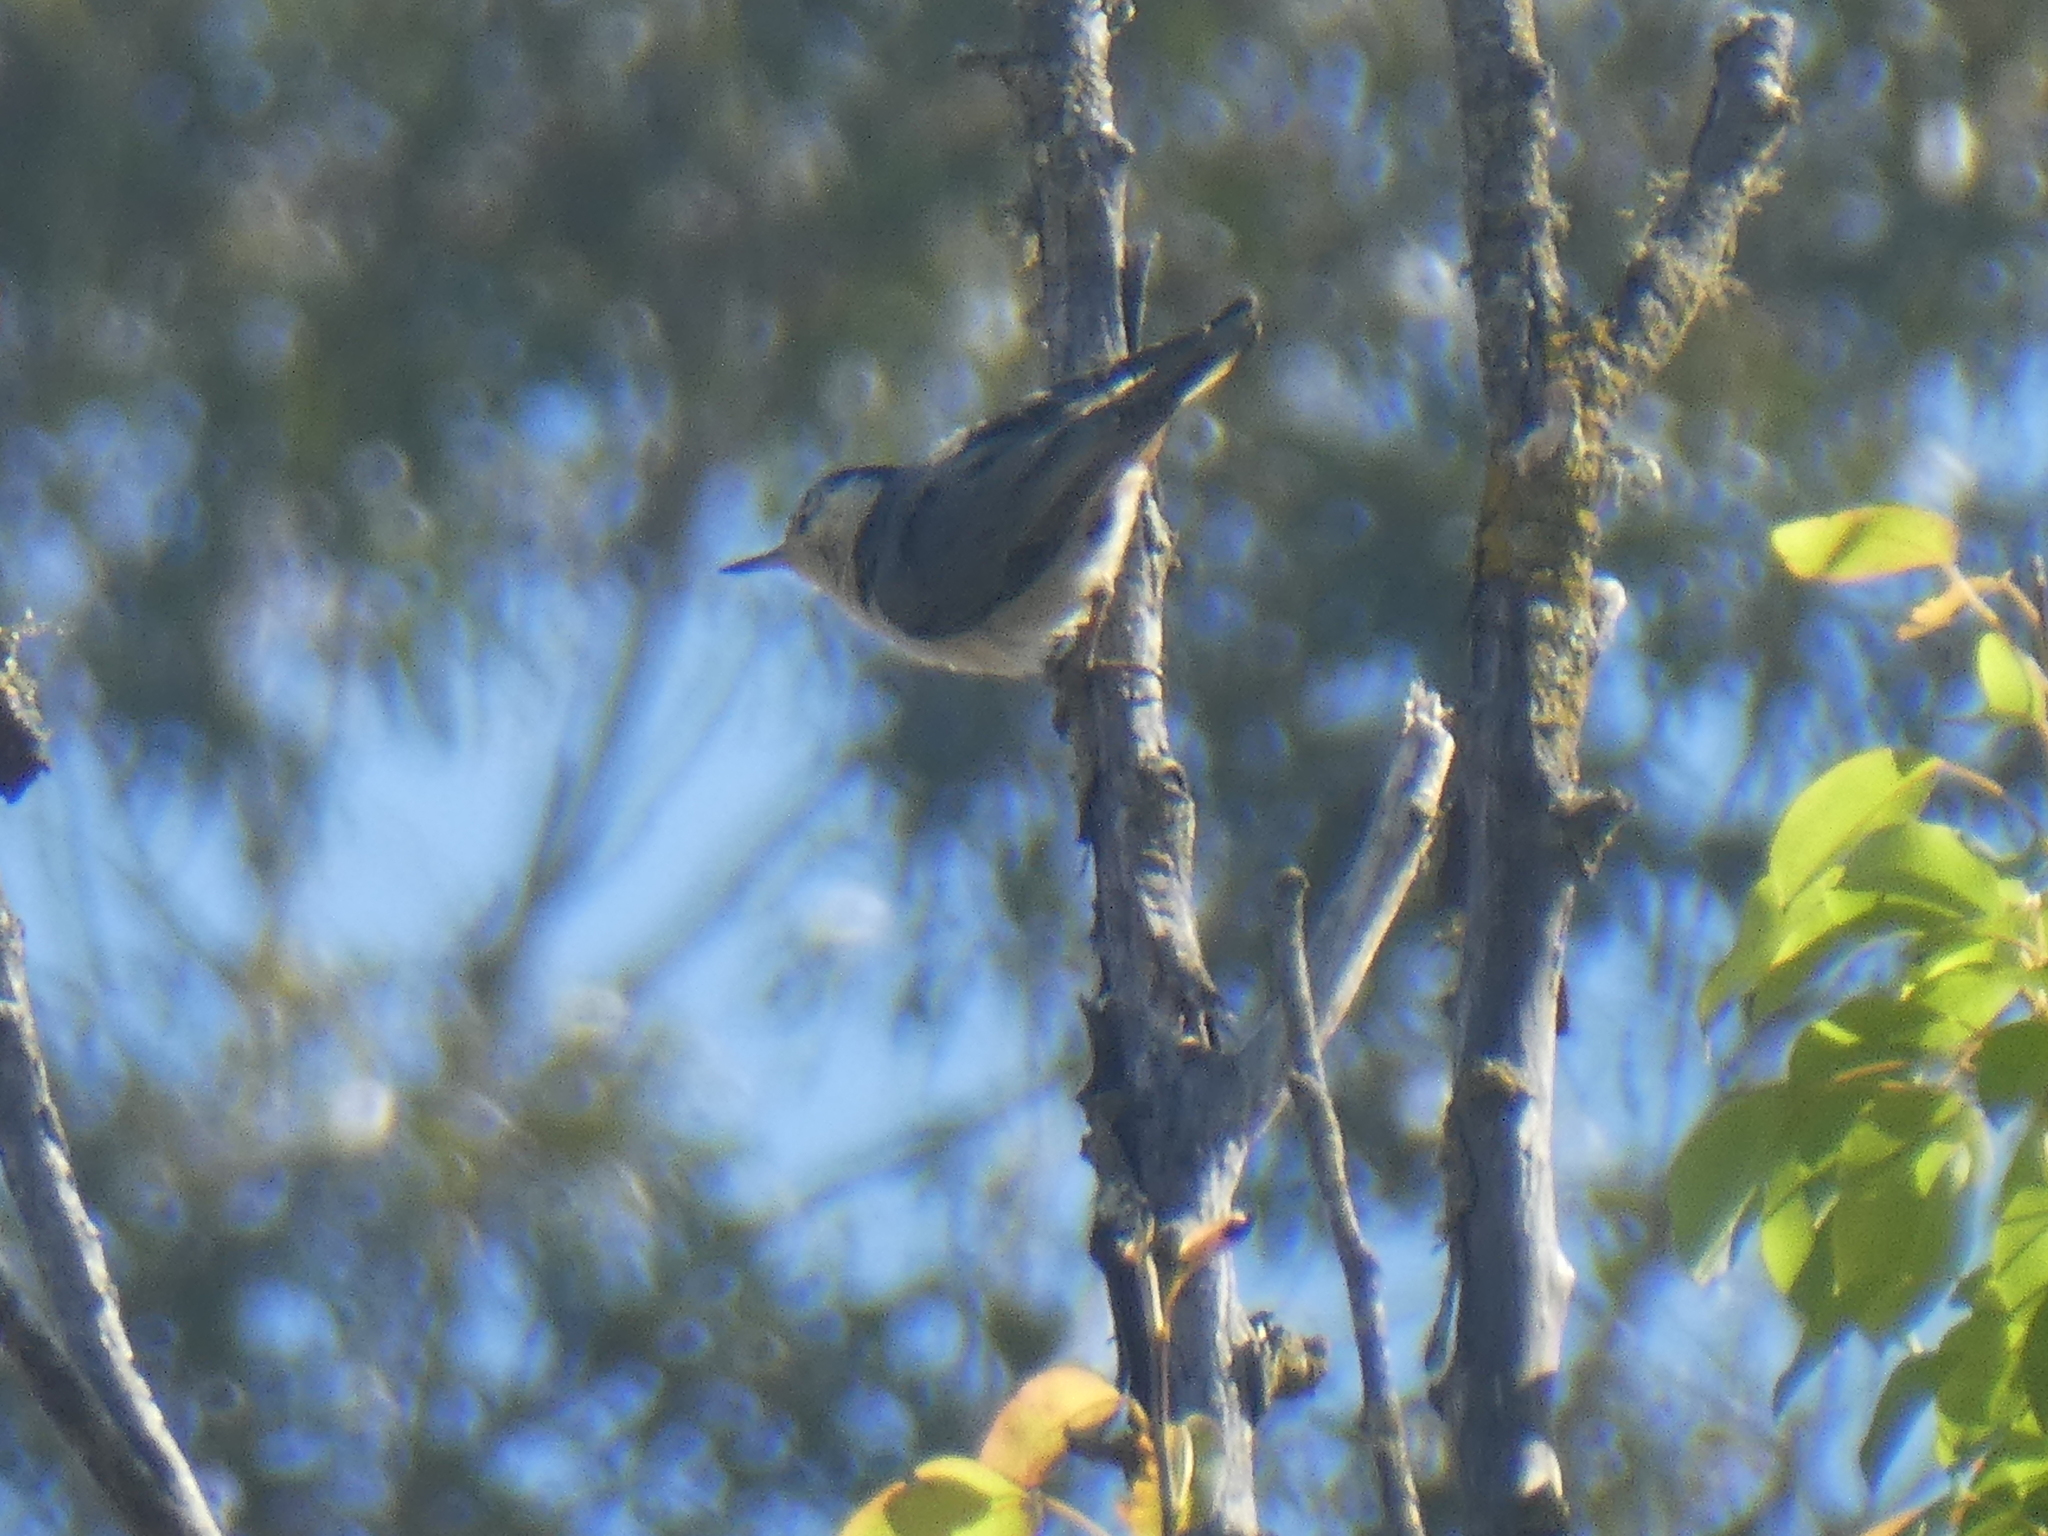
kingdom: Animalia
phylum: Chordata
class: Aves
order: Passeriformes
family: Sittidae
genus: Sitta
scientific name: Sitta carolinensis
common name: White-breasted nuthatch
